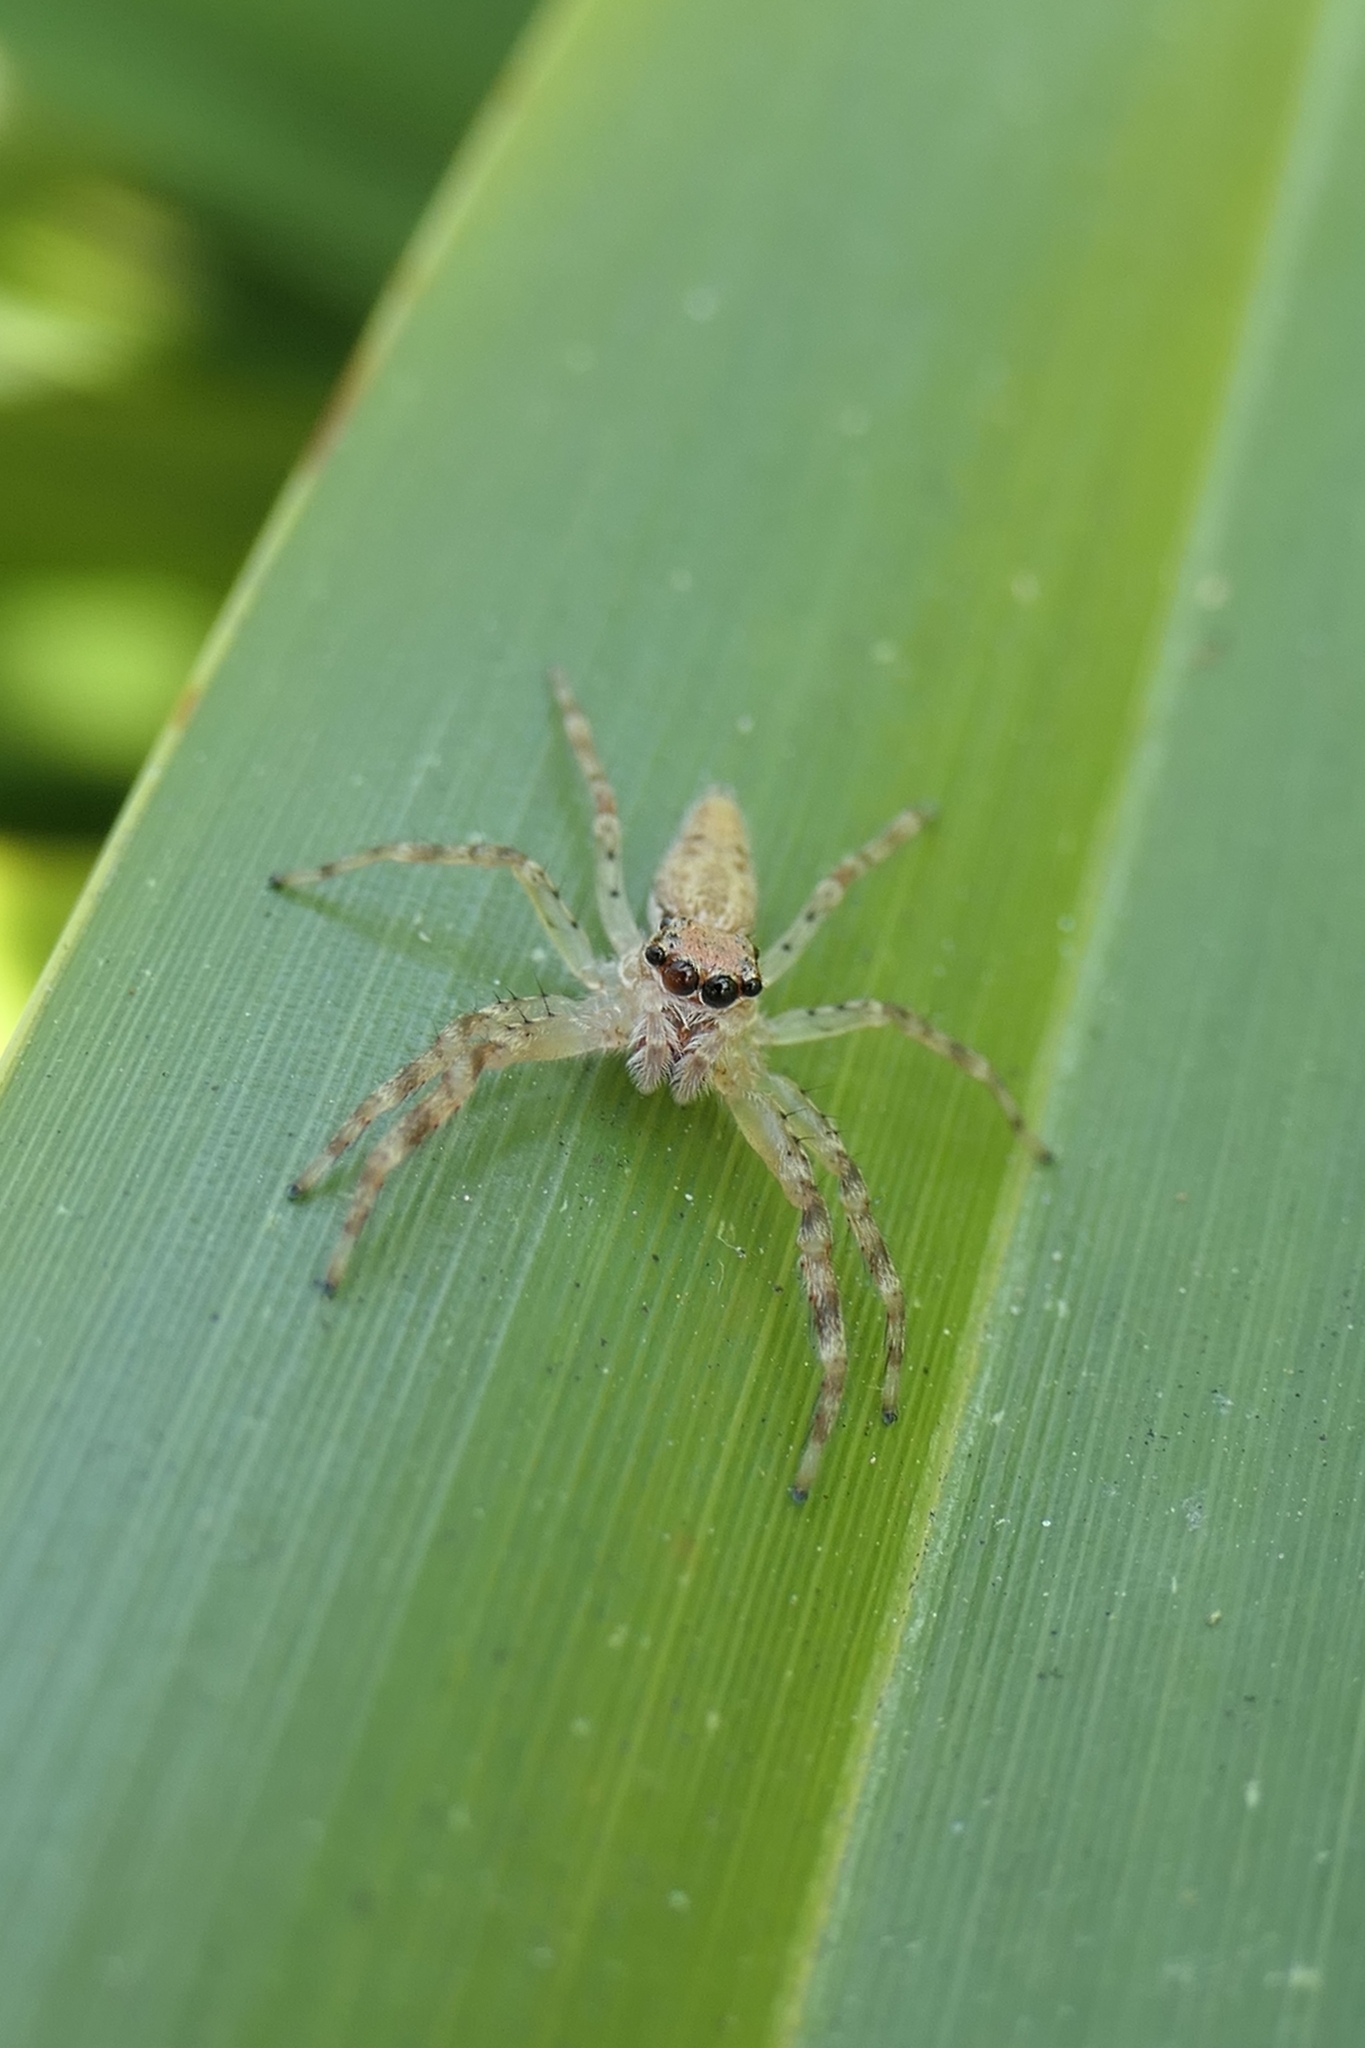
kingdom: Animalia
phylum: Arthropoda
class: Arachnida
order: Araneae
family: Salticidae
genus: Helpis
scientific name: Helpis minitabunda
